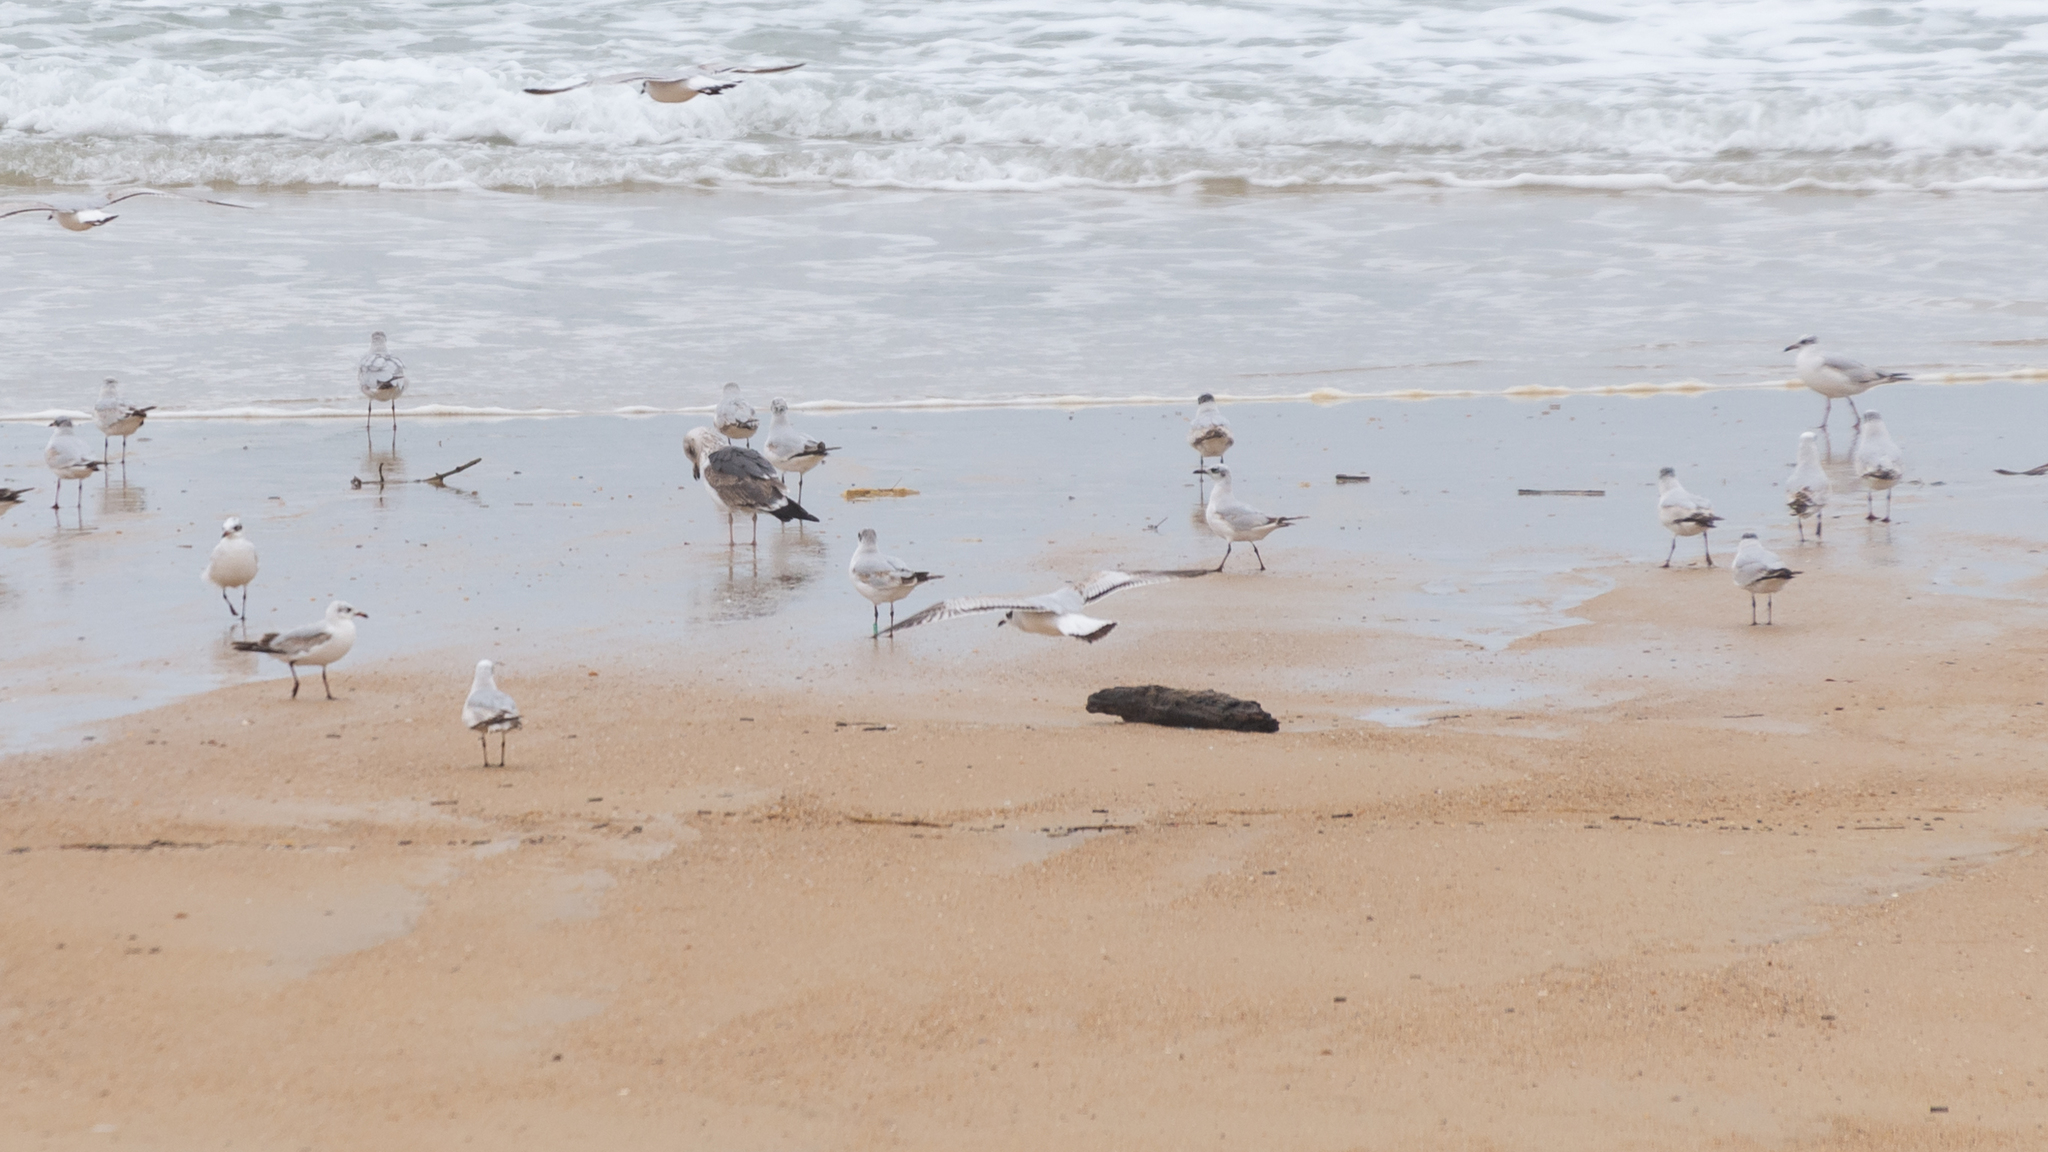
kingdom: Animalia
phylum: Chordata
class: Aves
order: Charadriiformes
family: Laridae
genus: Ichthyaetus
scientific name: Ichthyaetus melanocephalus
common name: Mediterranean gull
